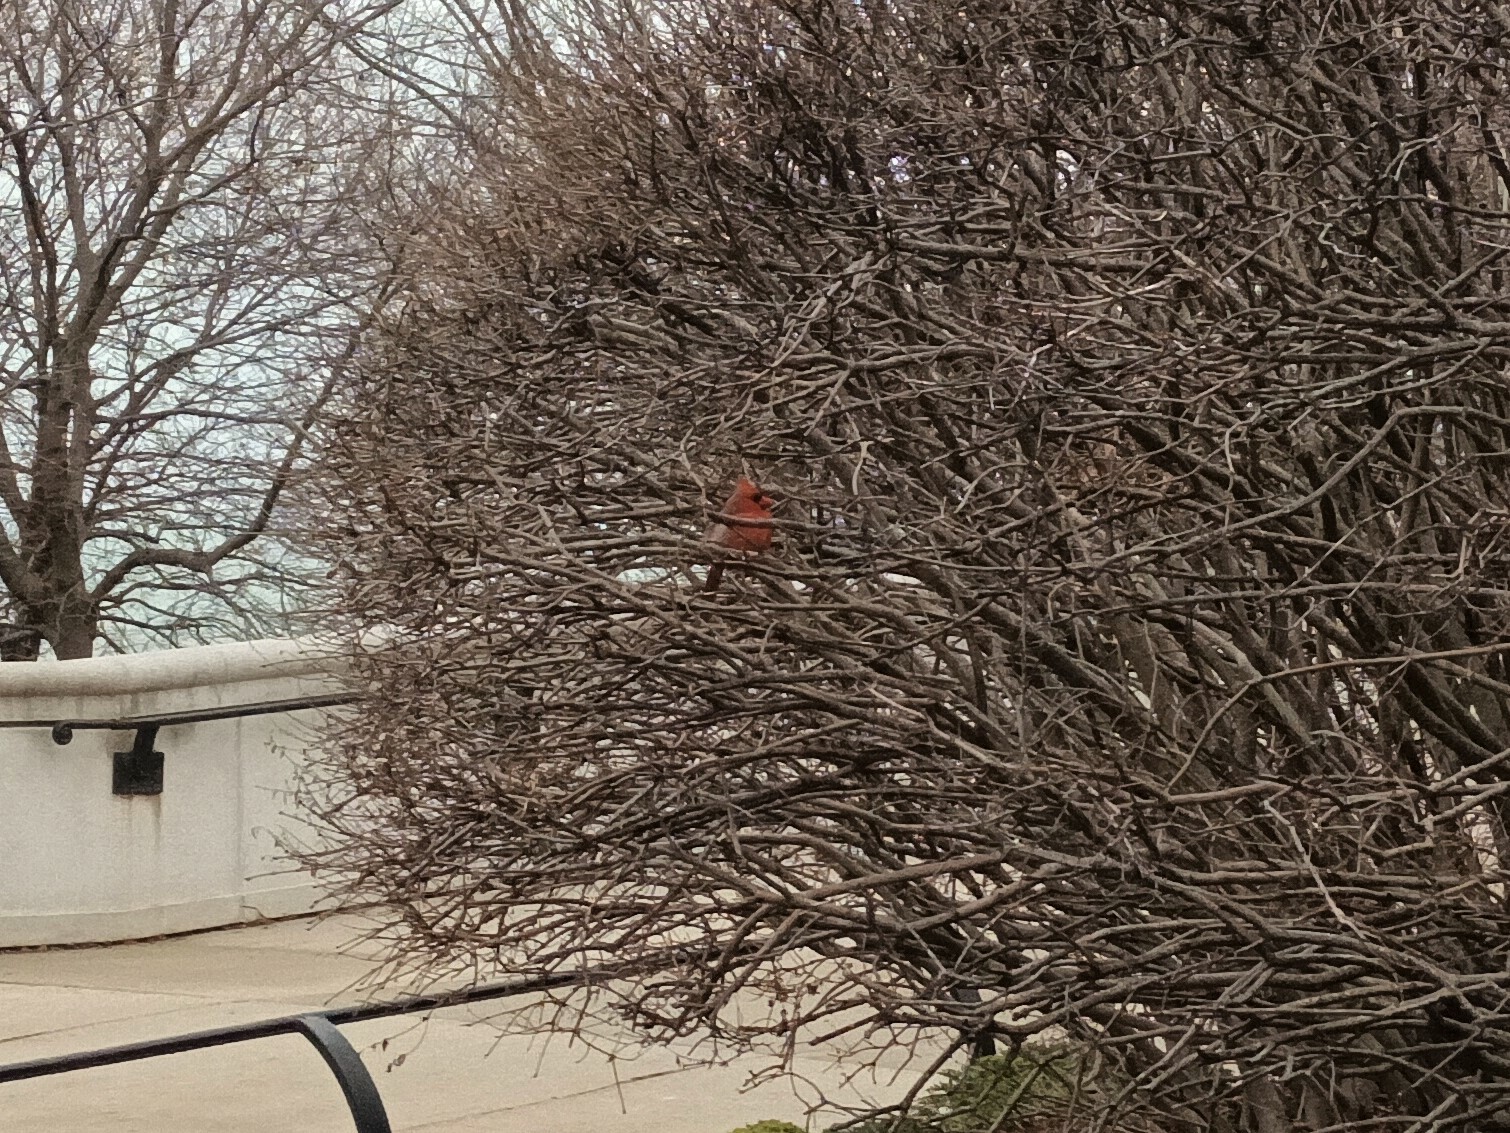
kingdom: Animalia
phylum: Chordata
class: Aves
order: Passeriformes
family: Cardinalidae
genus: Cardinalis
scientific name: Cardinalis cardinalis
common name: Northern cardinal
